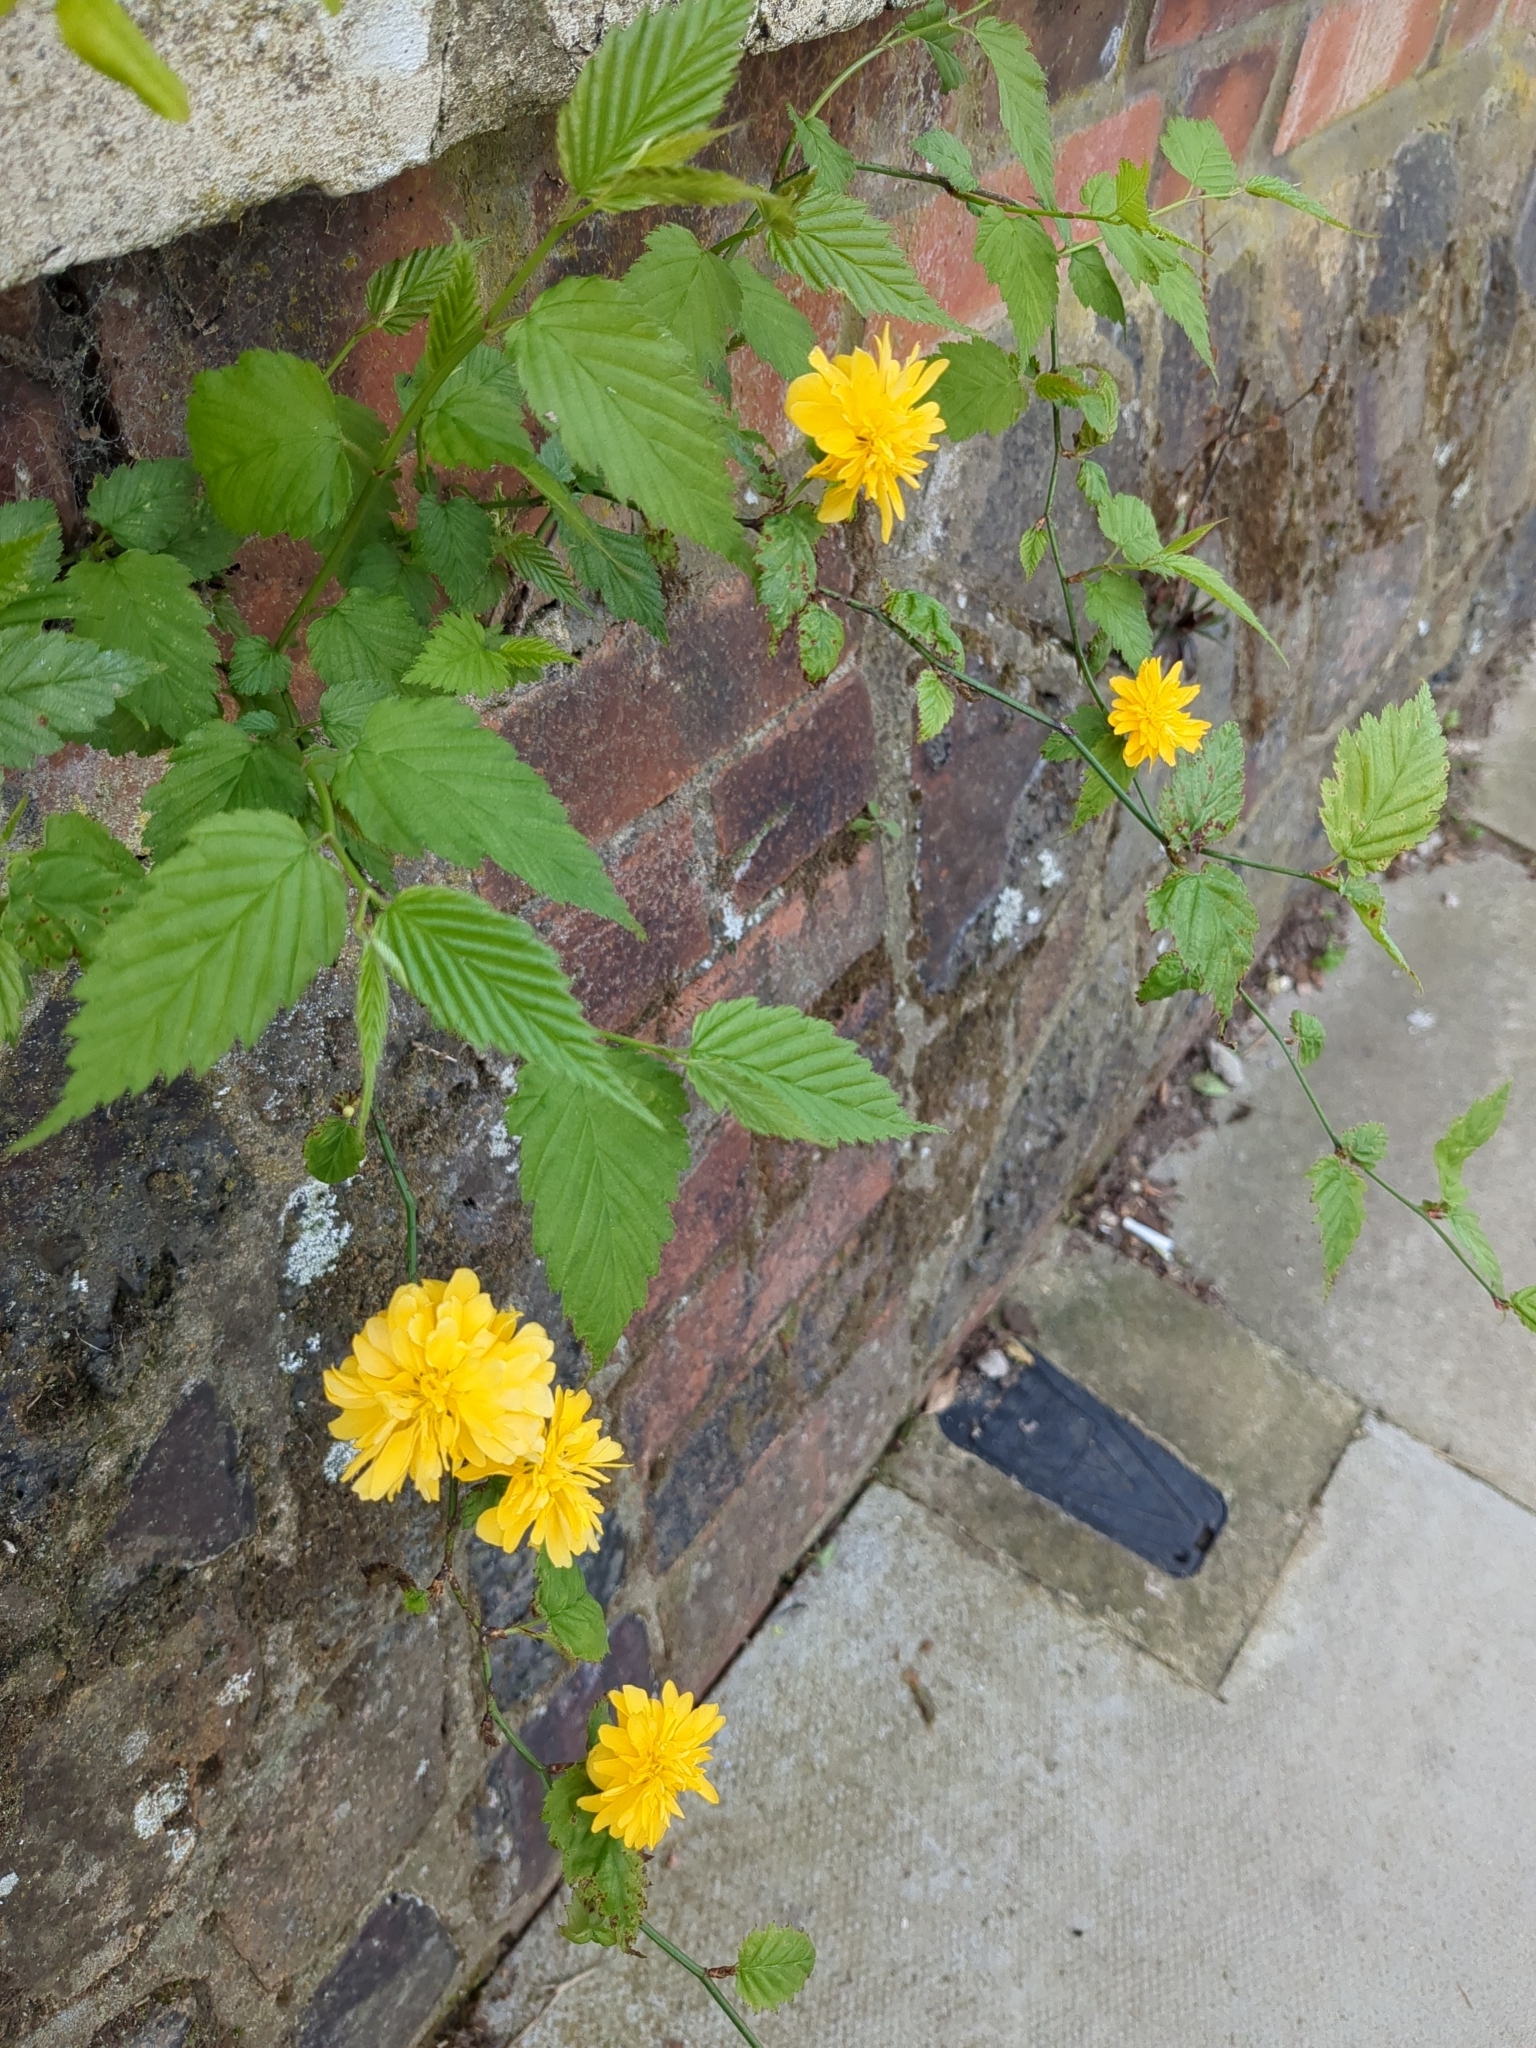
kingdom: Plantae
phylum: Tracheophyta
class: Magnoliopsida
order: Rosales
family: Rosaceae
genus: Kerria
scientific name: Kerria japonica
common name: Japanese kerria
